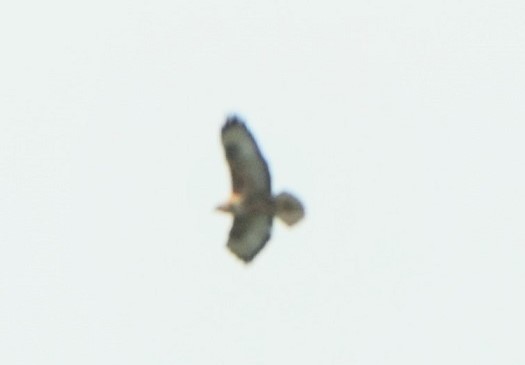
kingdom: Animalia
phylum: Chordata
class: Aves
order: Accipitriformes
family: Accipitridae
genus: Buteo
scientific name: Buteo rufinus
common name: Long-legged buzzard
